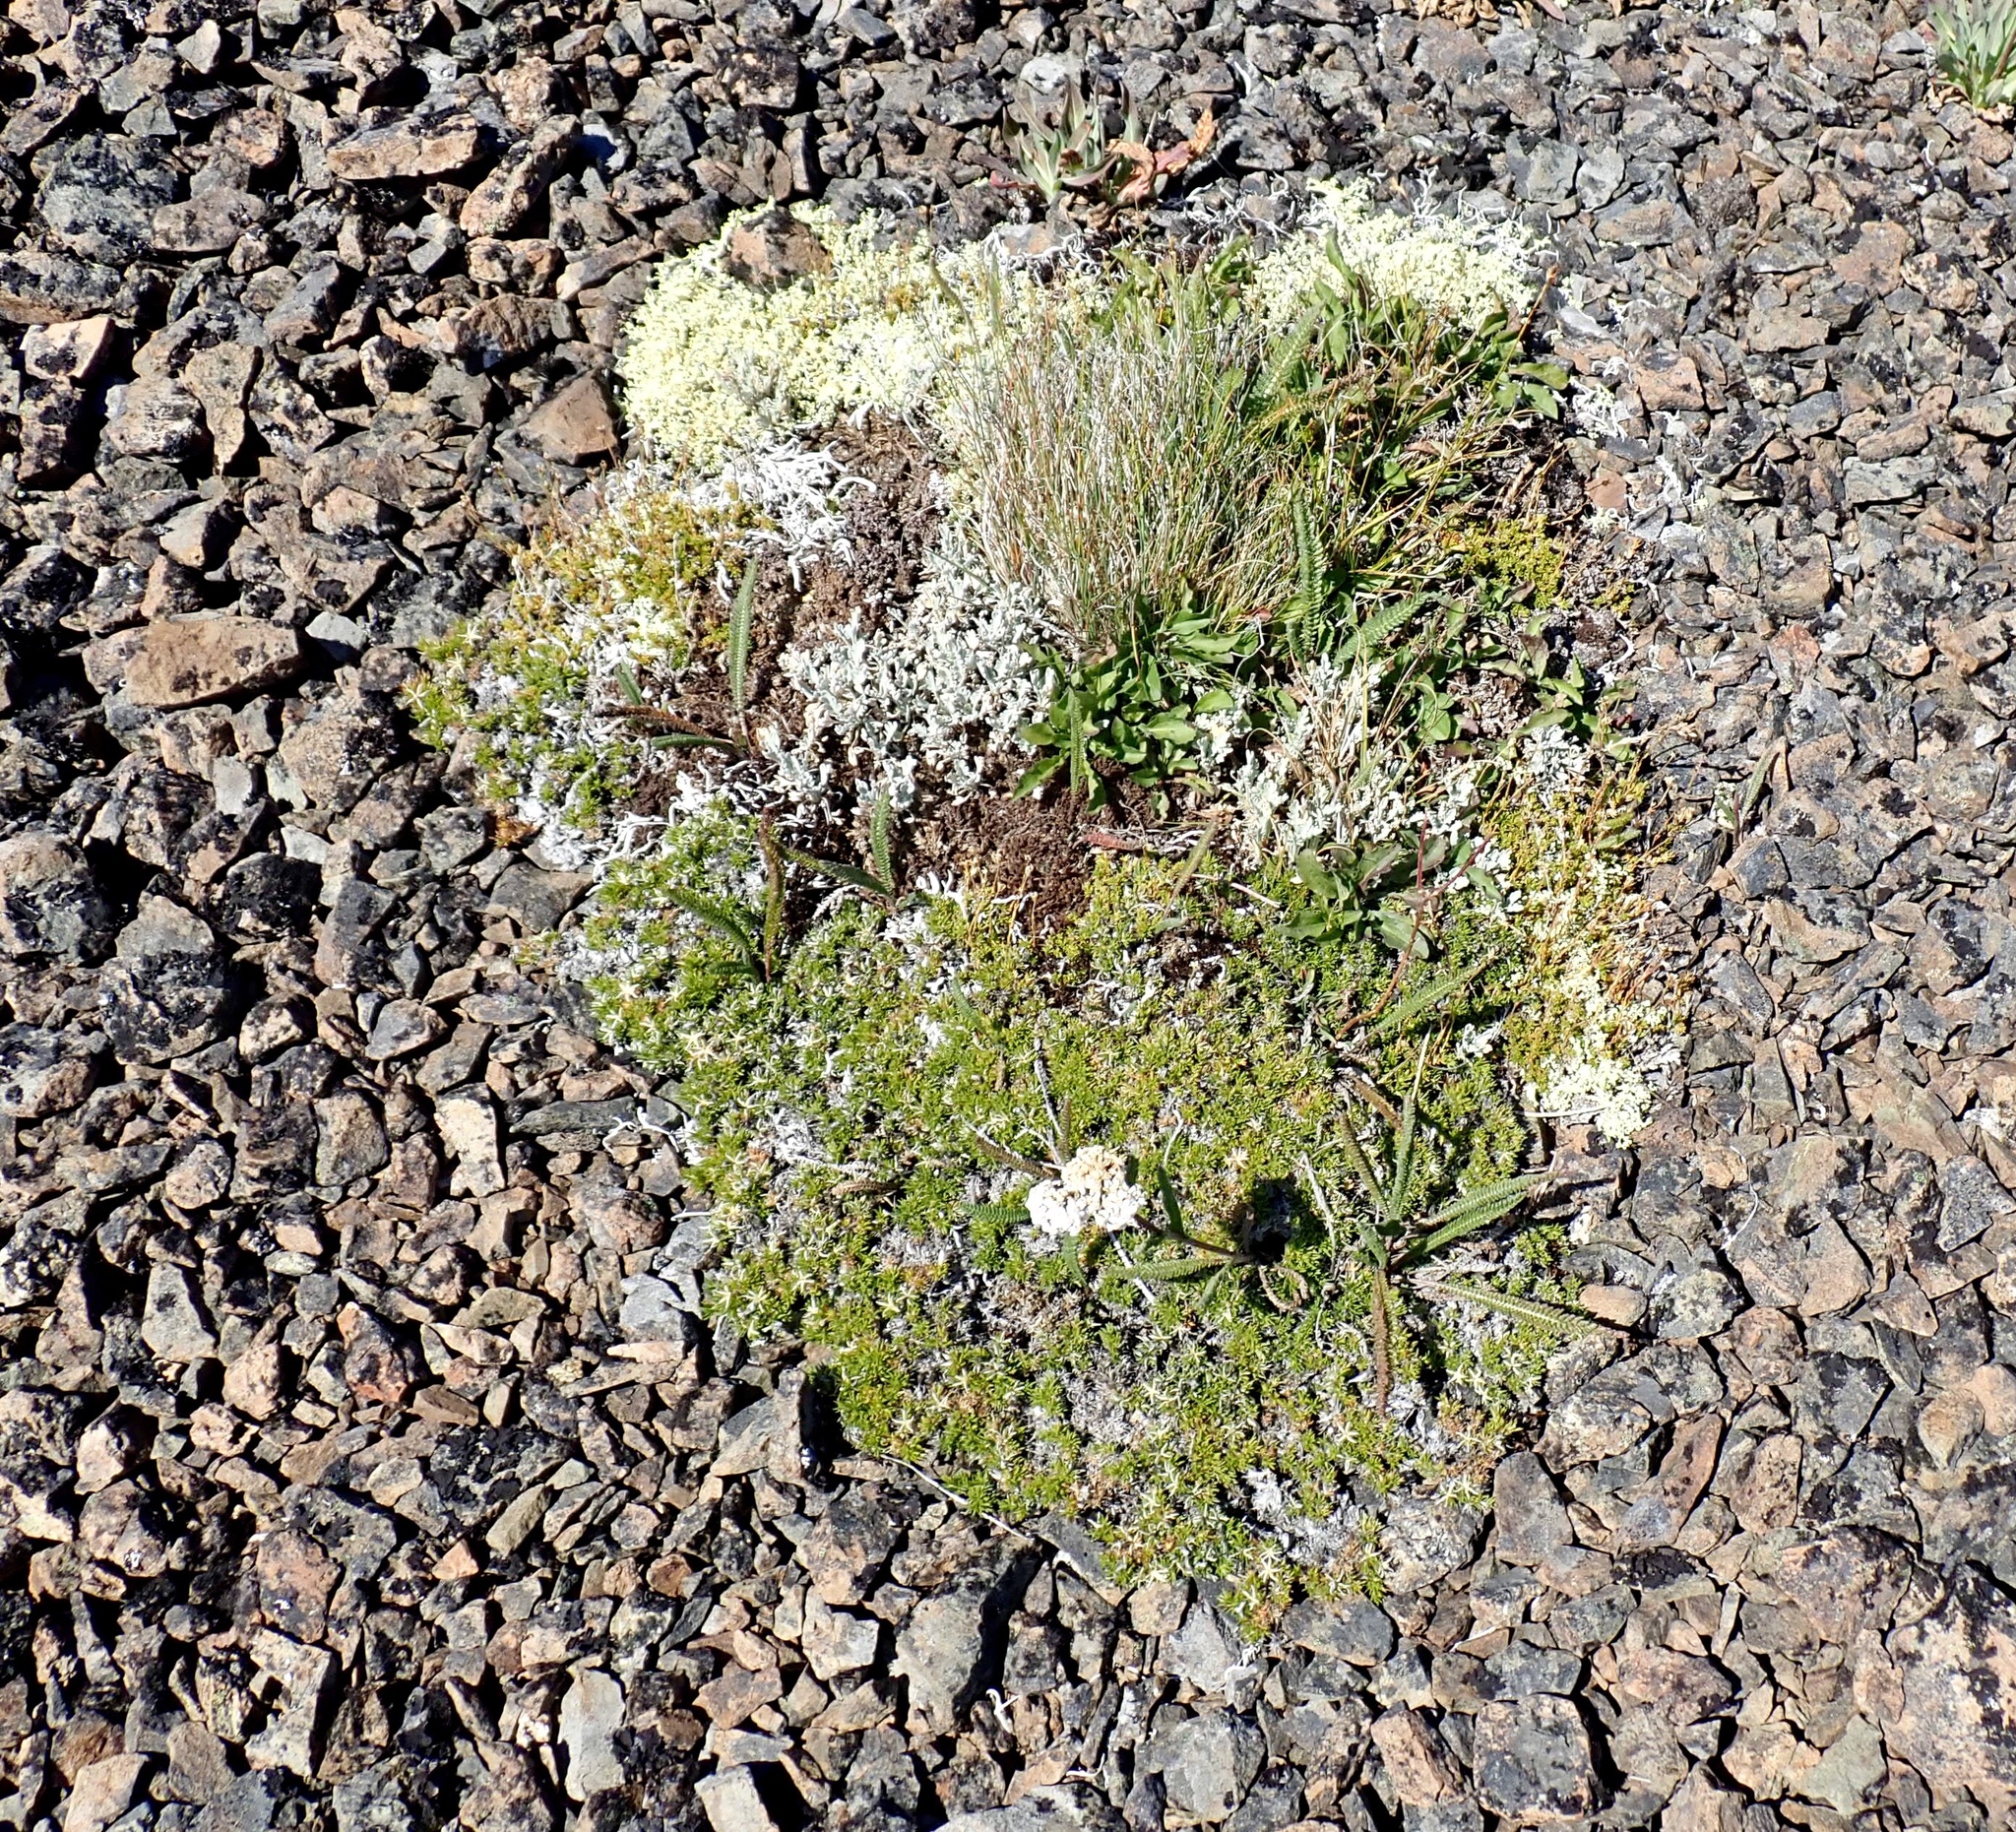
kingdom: Plantae
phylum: Tracheophyta
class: Magnoliopsida
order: Asterales
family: Asteraceae
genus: Achillea
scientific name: Achillea millefolium
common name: Yarrow
